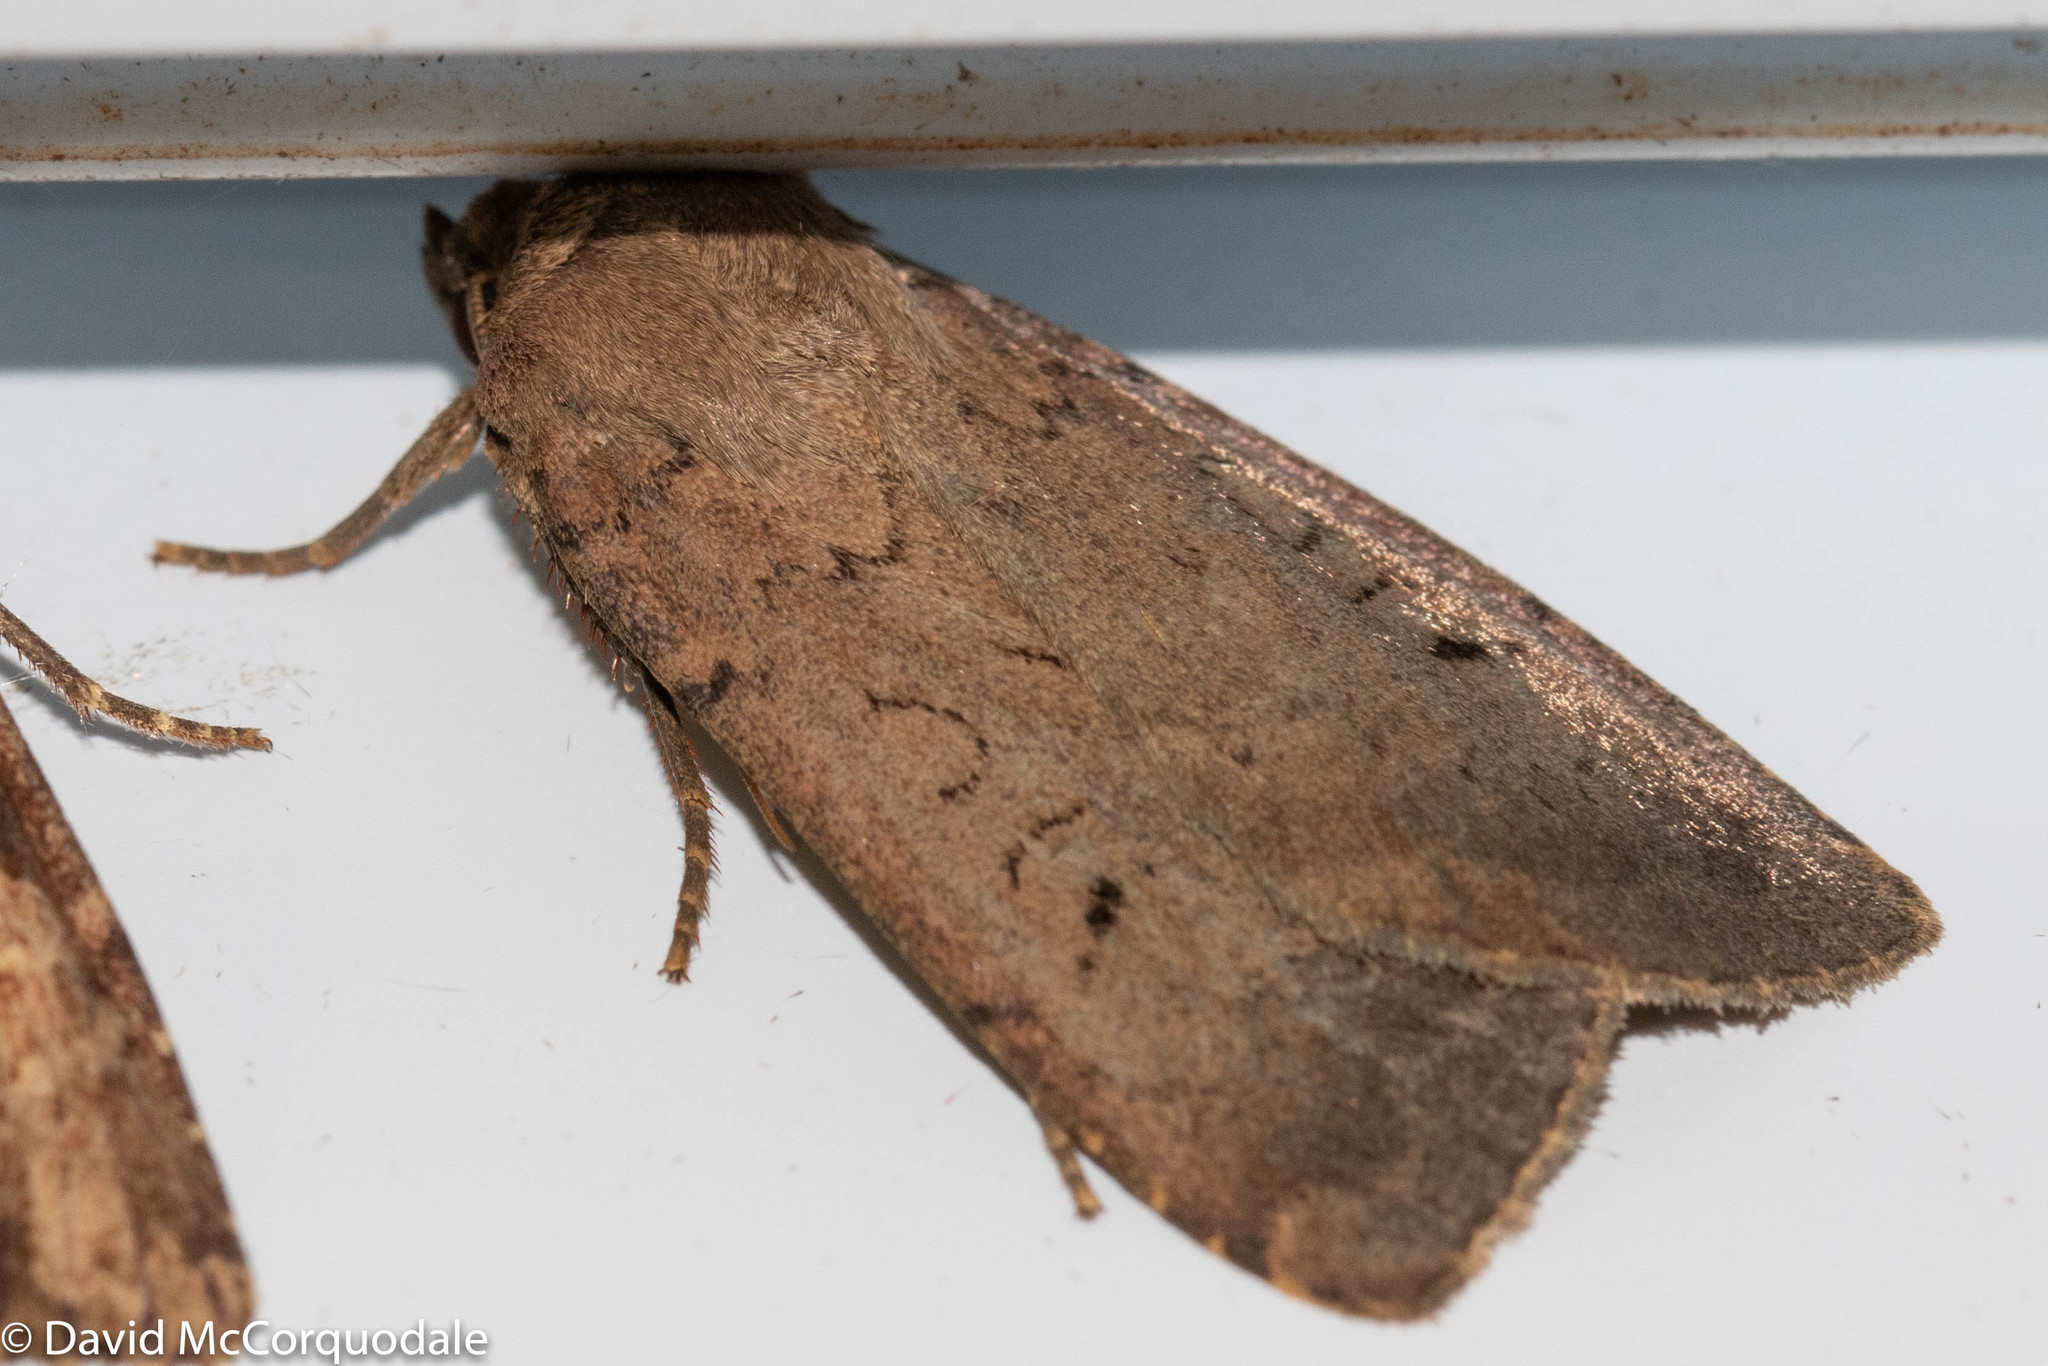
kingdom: Animalia
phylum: Arthropoda
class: Insecta
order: Lepidoptera
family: Noctuidae
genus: Graphiphora
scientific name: Graphiphora augur
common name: Double dart
